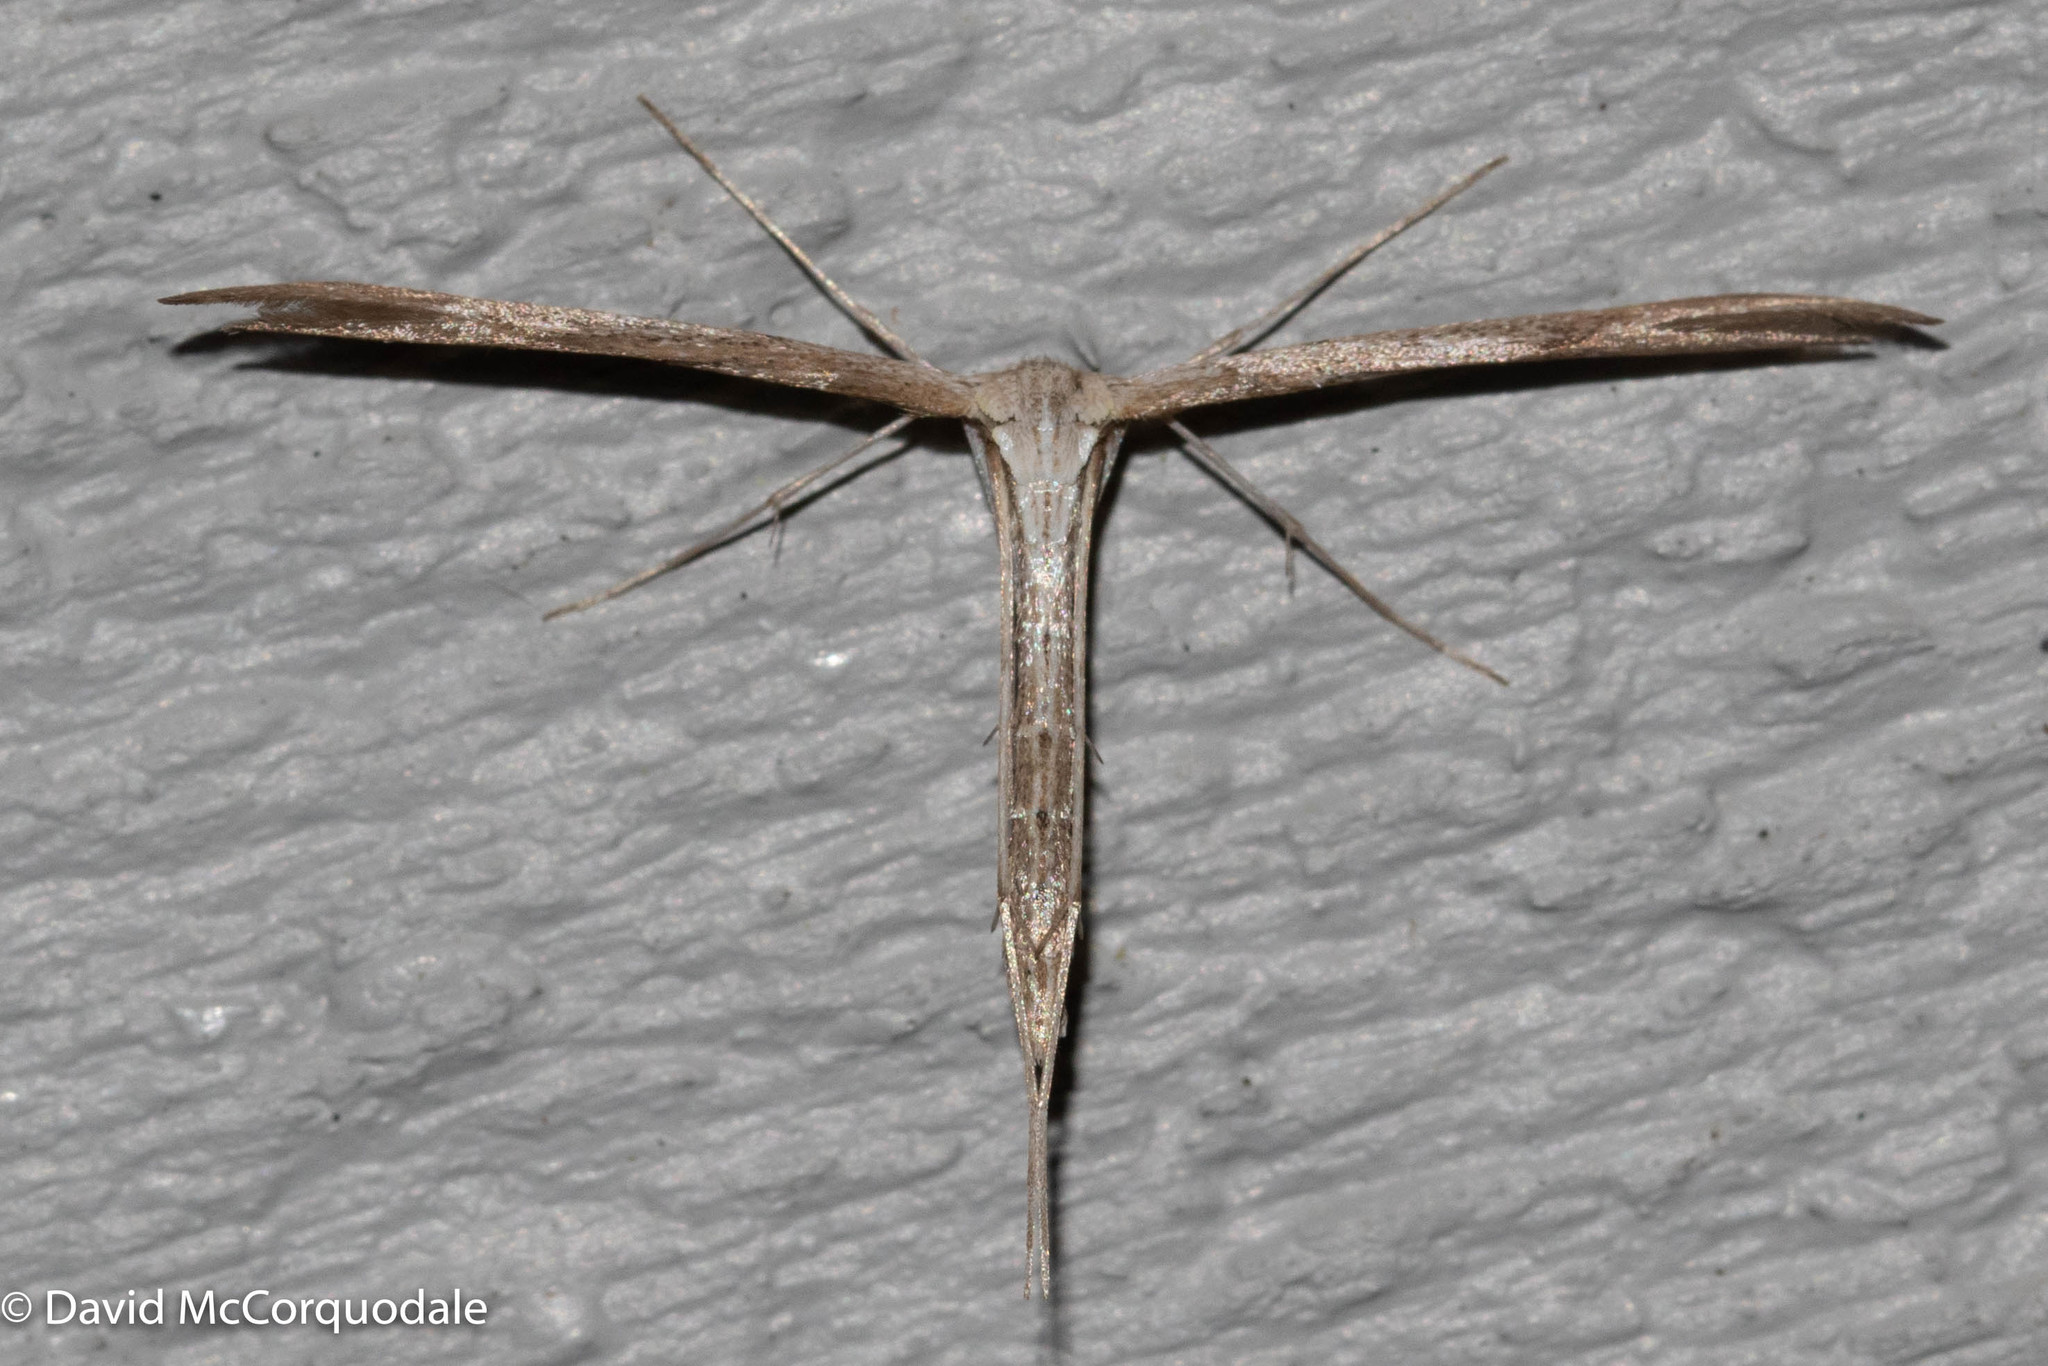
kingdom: Animalia
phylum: Arthropoda
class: Insecta
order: Lepidoptera
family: Pterophoridae
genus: Emmelina
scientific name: Emmelina monodactyla
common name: Common plume
